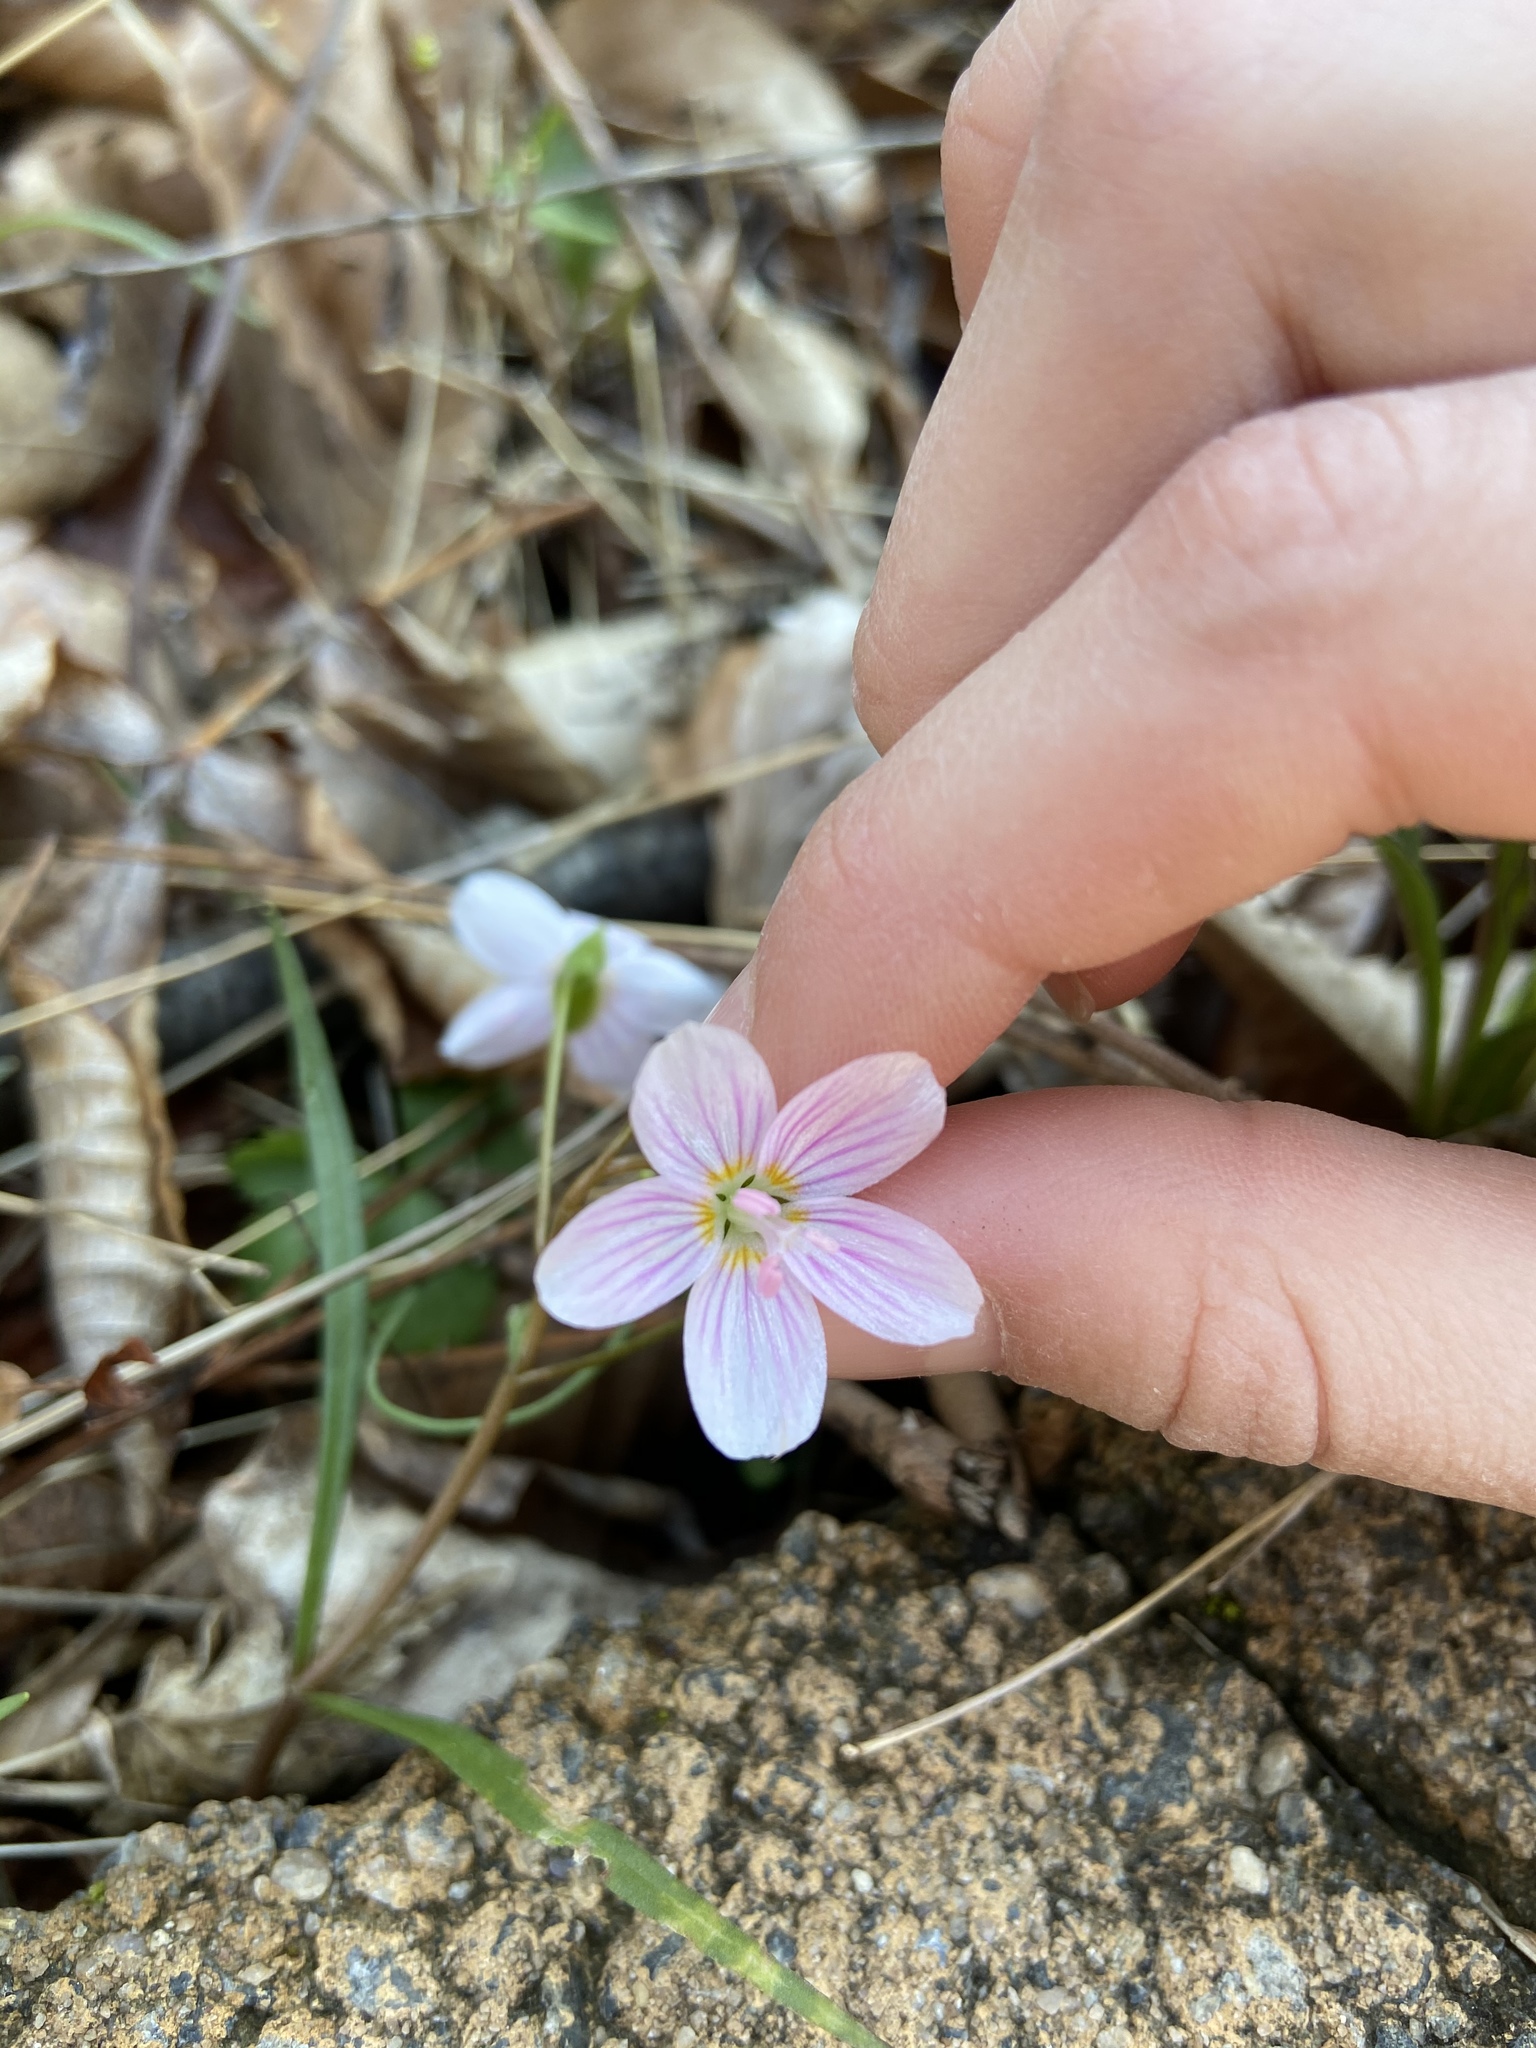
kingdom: Plantae
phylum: Tracheophyta
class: Magnoliopsida
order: Caryophyllales
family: Montiaceae
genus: Claytonia
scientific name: Claytonia virginica
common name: Virginia springbeauty
